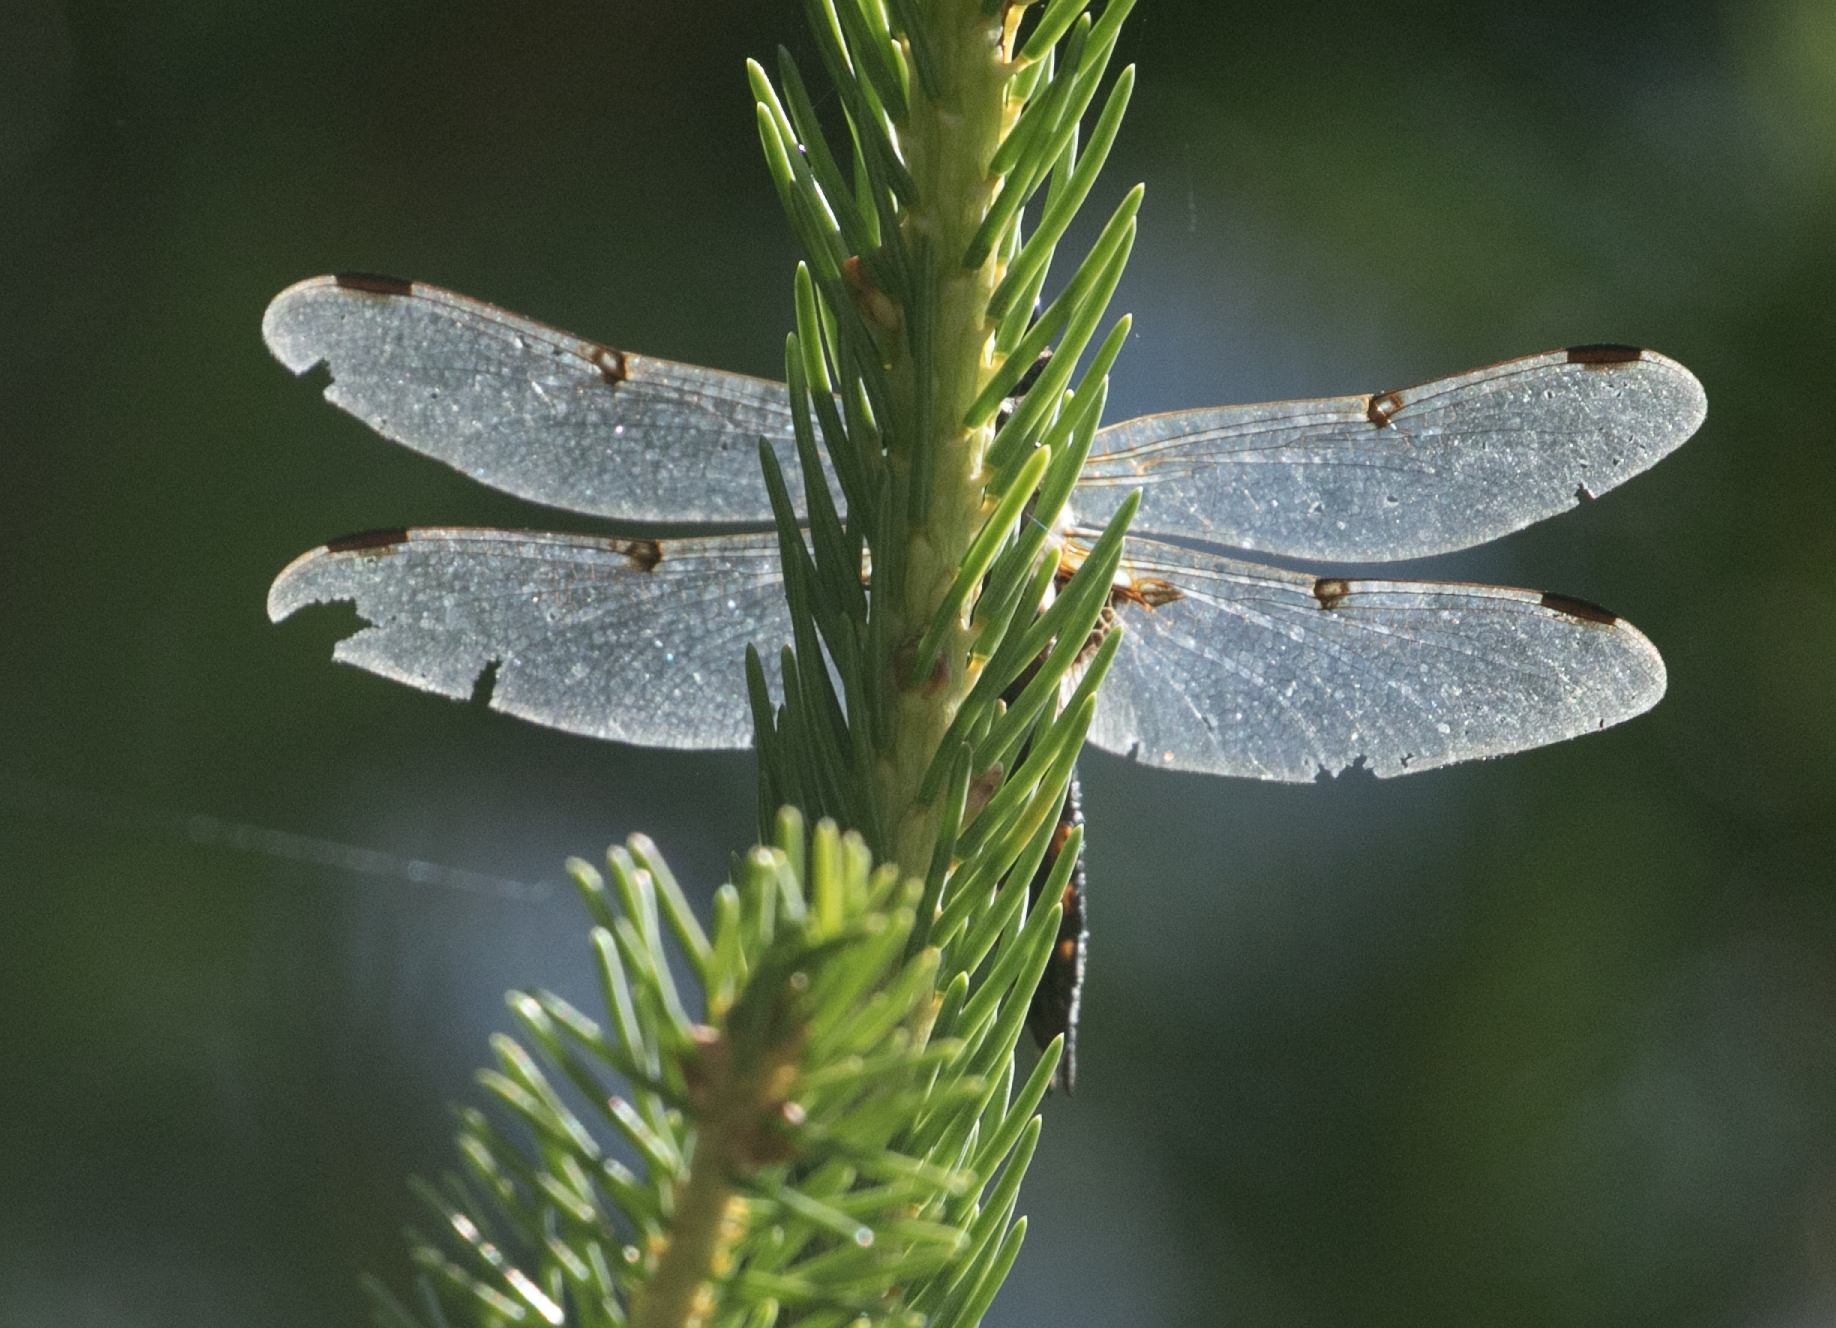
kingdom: Animalia
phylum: Arthropoda
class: Insecta
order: Odonata
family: Libellulidae
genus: Libellula
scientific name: Libellula quadrimaculata
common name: Four-spotted chaser
